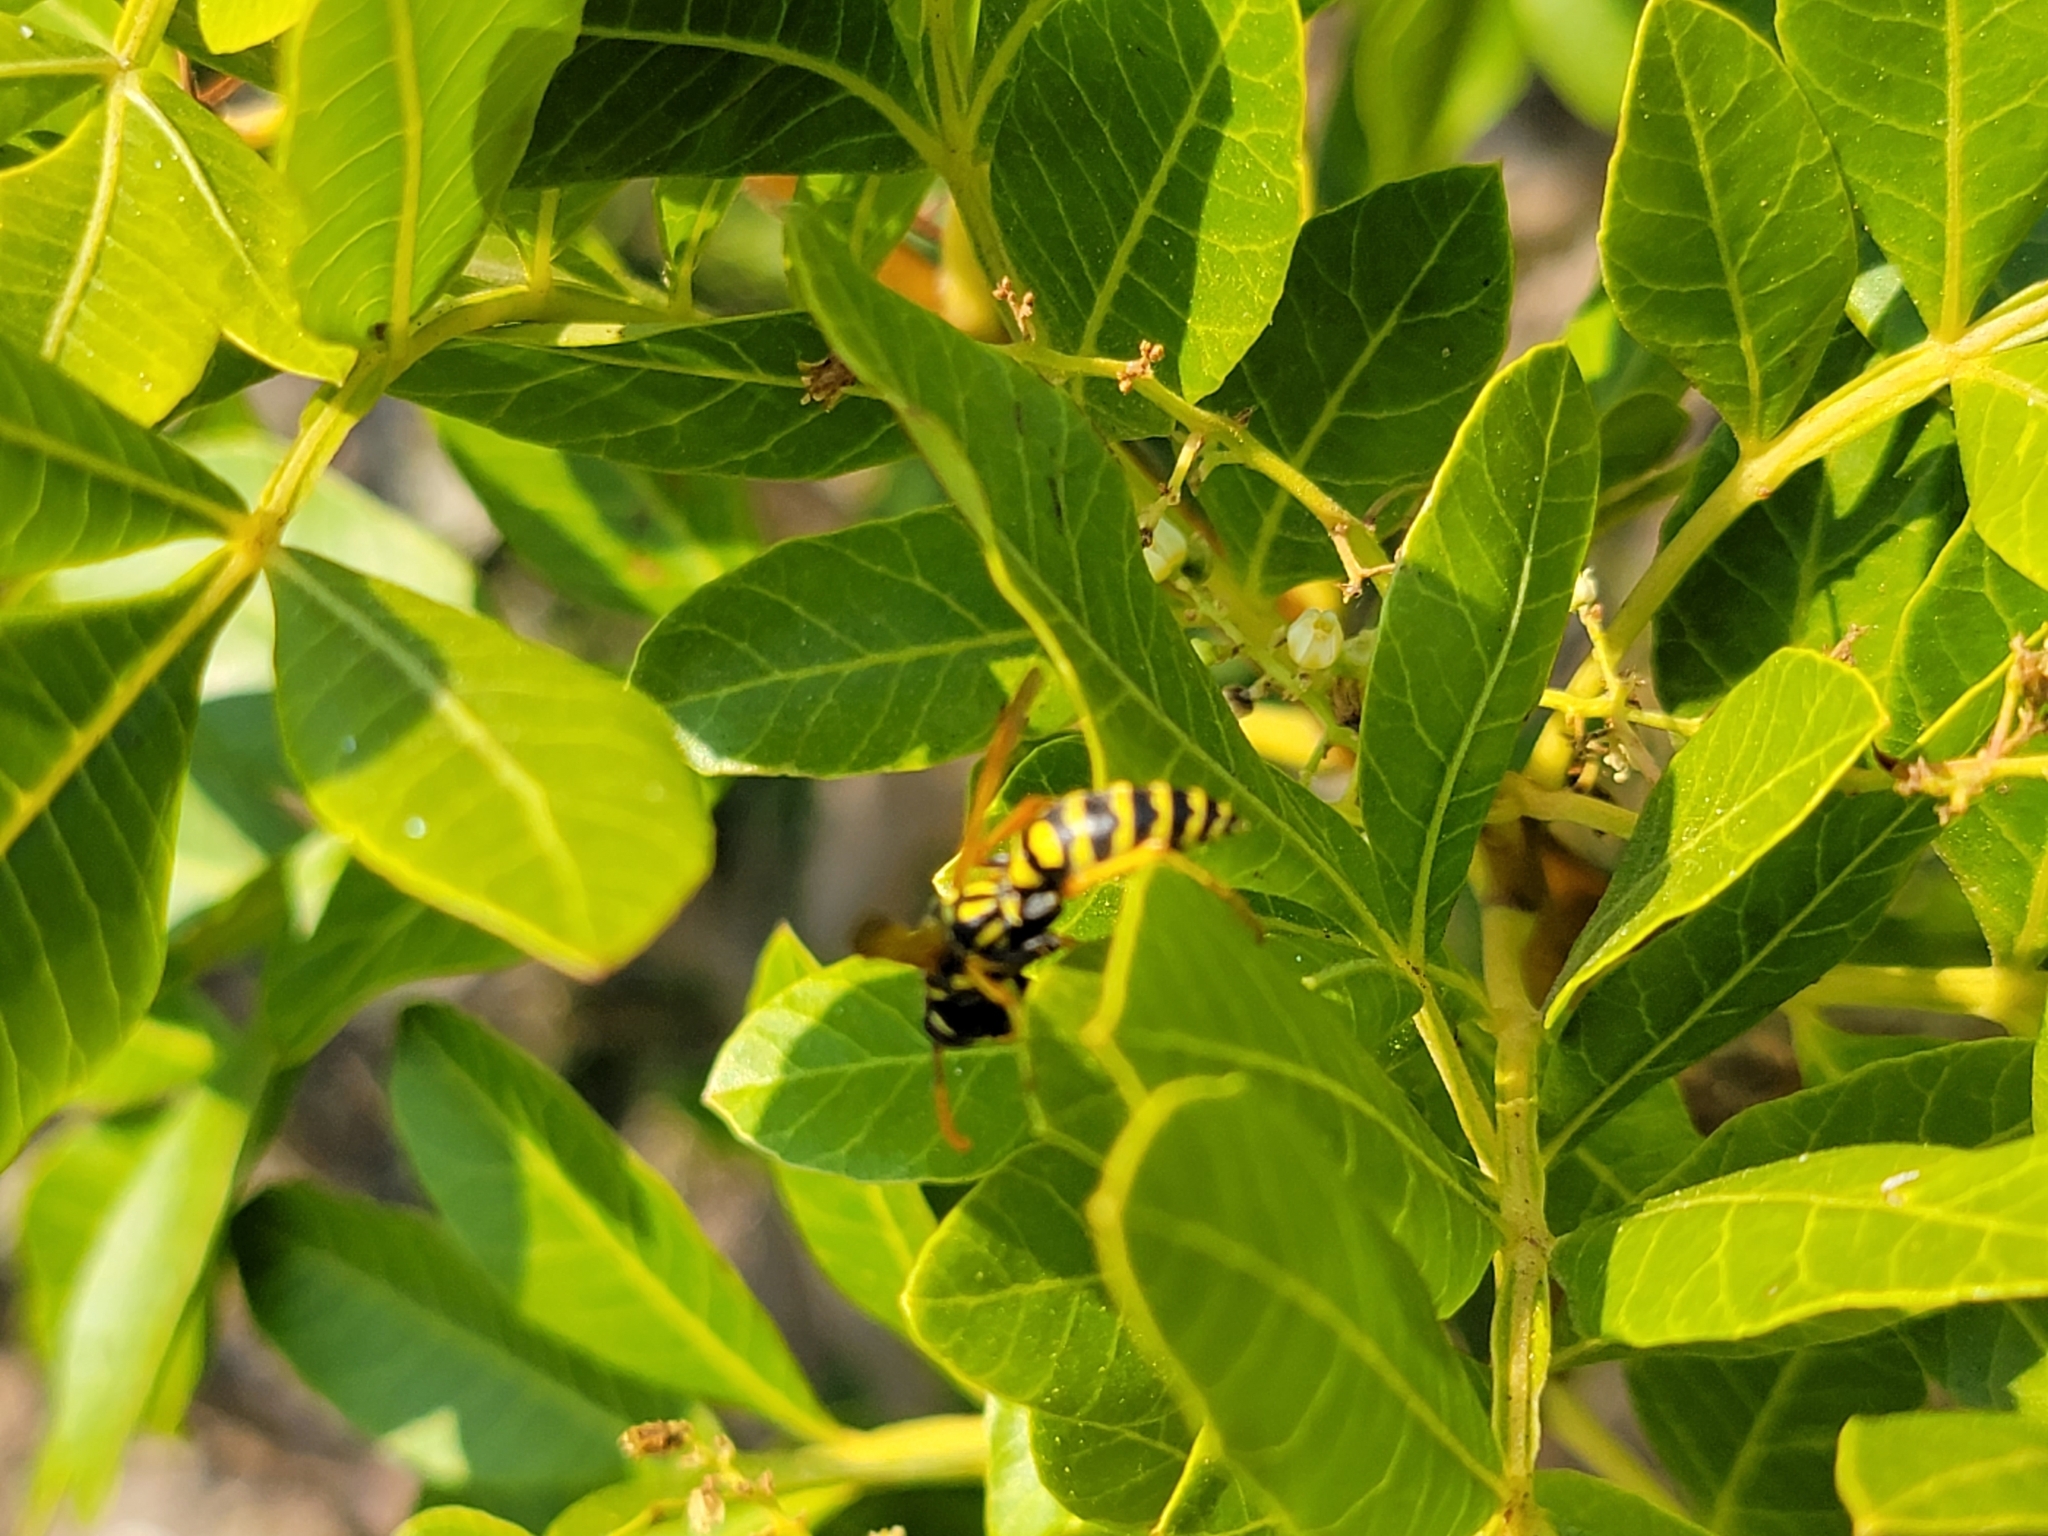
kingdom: Animalia
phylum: Arthropoda
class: Insecta
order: Hymenoptera
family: Eumenidae
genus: Polistes
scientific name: Polistes dominula
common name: Paper wasp
